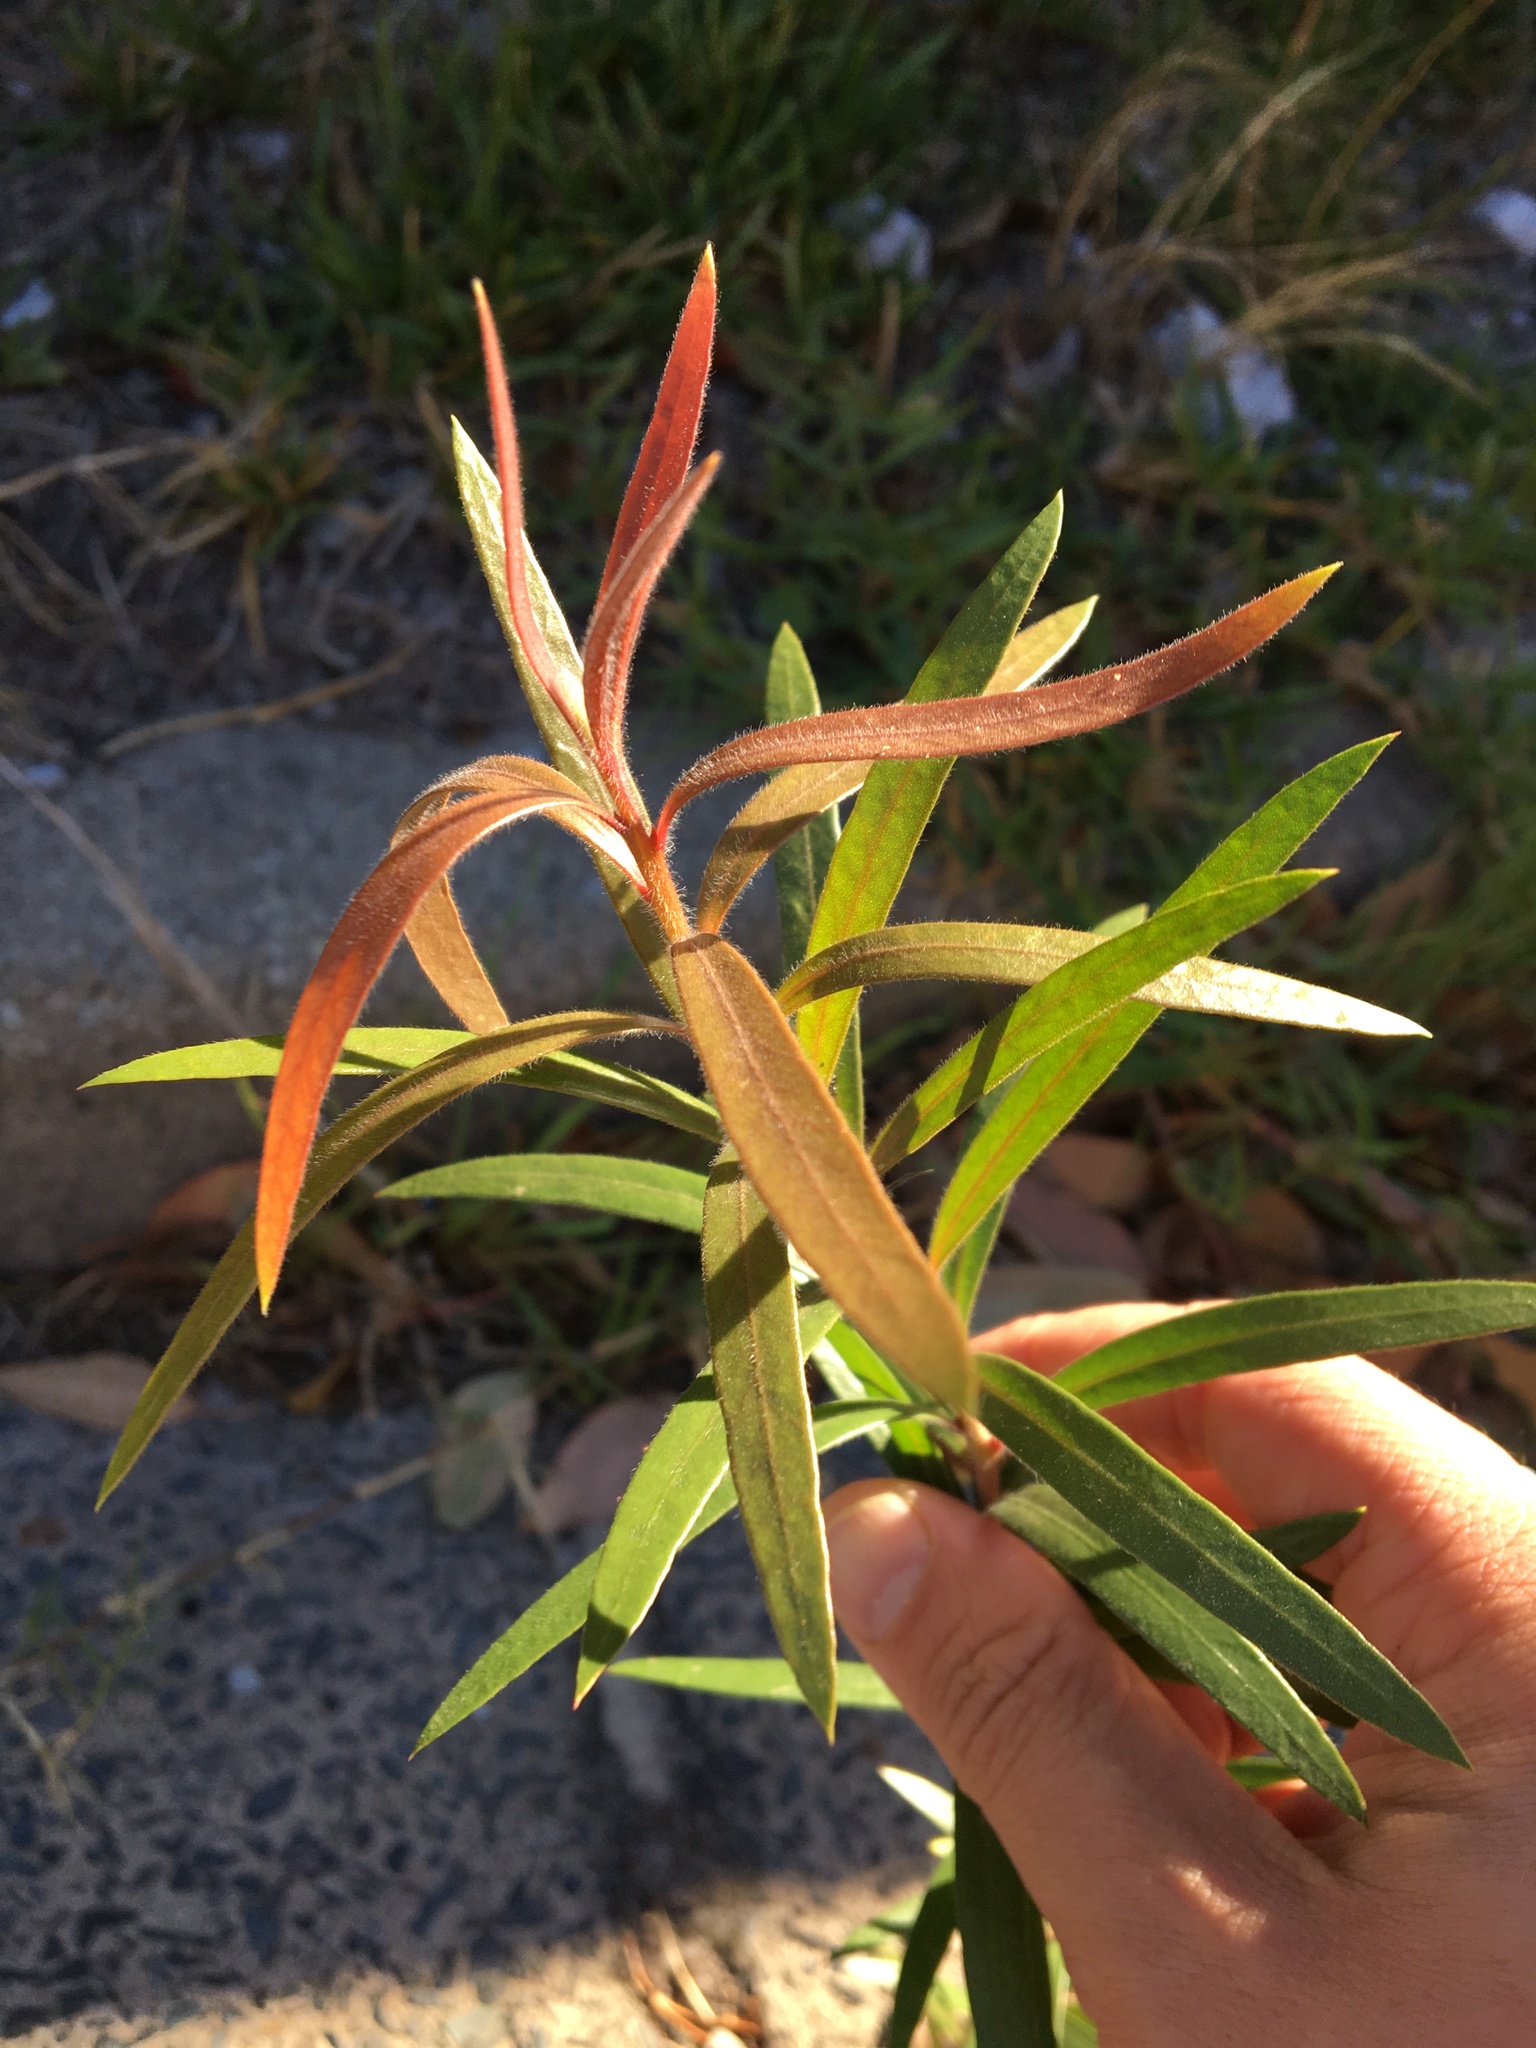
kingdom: Plantae
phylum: Tracheophyta
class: Magnoliopsida
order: Myrtales
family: Myrtaceae
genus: Callistemon
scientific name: Callistemon viminalis
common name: Drooping bottlebrush
